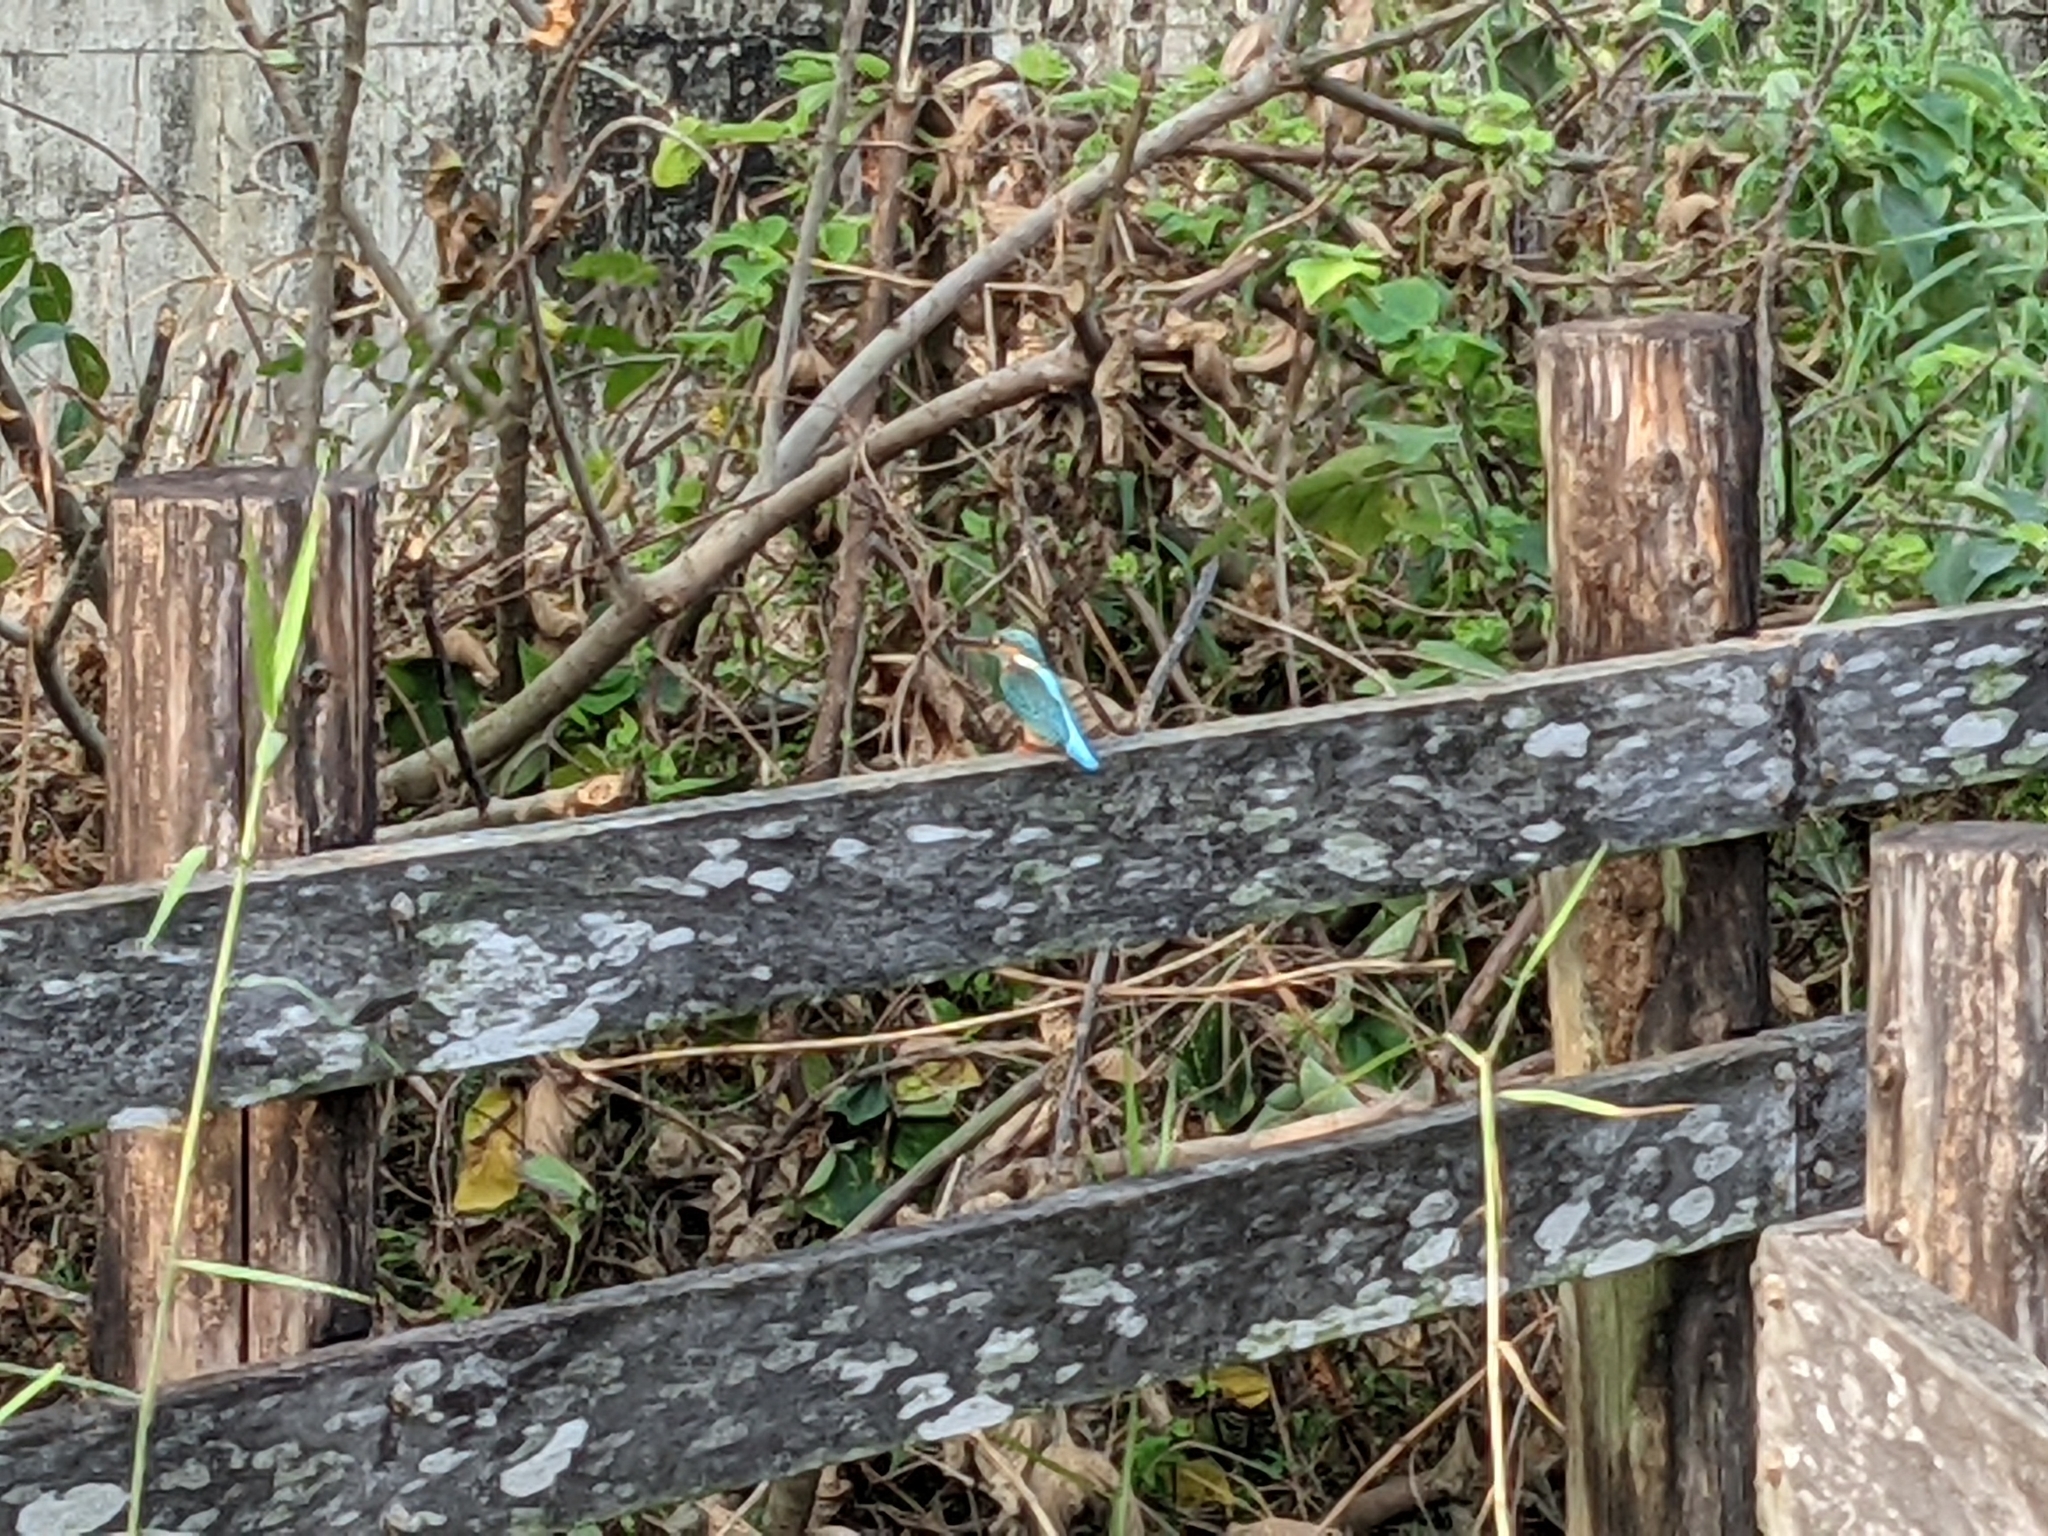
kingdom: Animalia
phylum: Chordata
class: Aves
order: Coraciiformes
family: Alcedinidae
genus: Alcedo
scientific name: Alcedo atthis
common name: Common kingfisher
